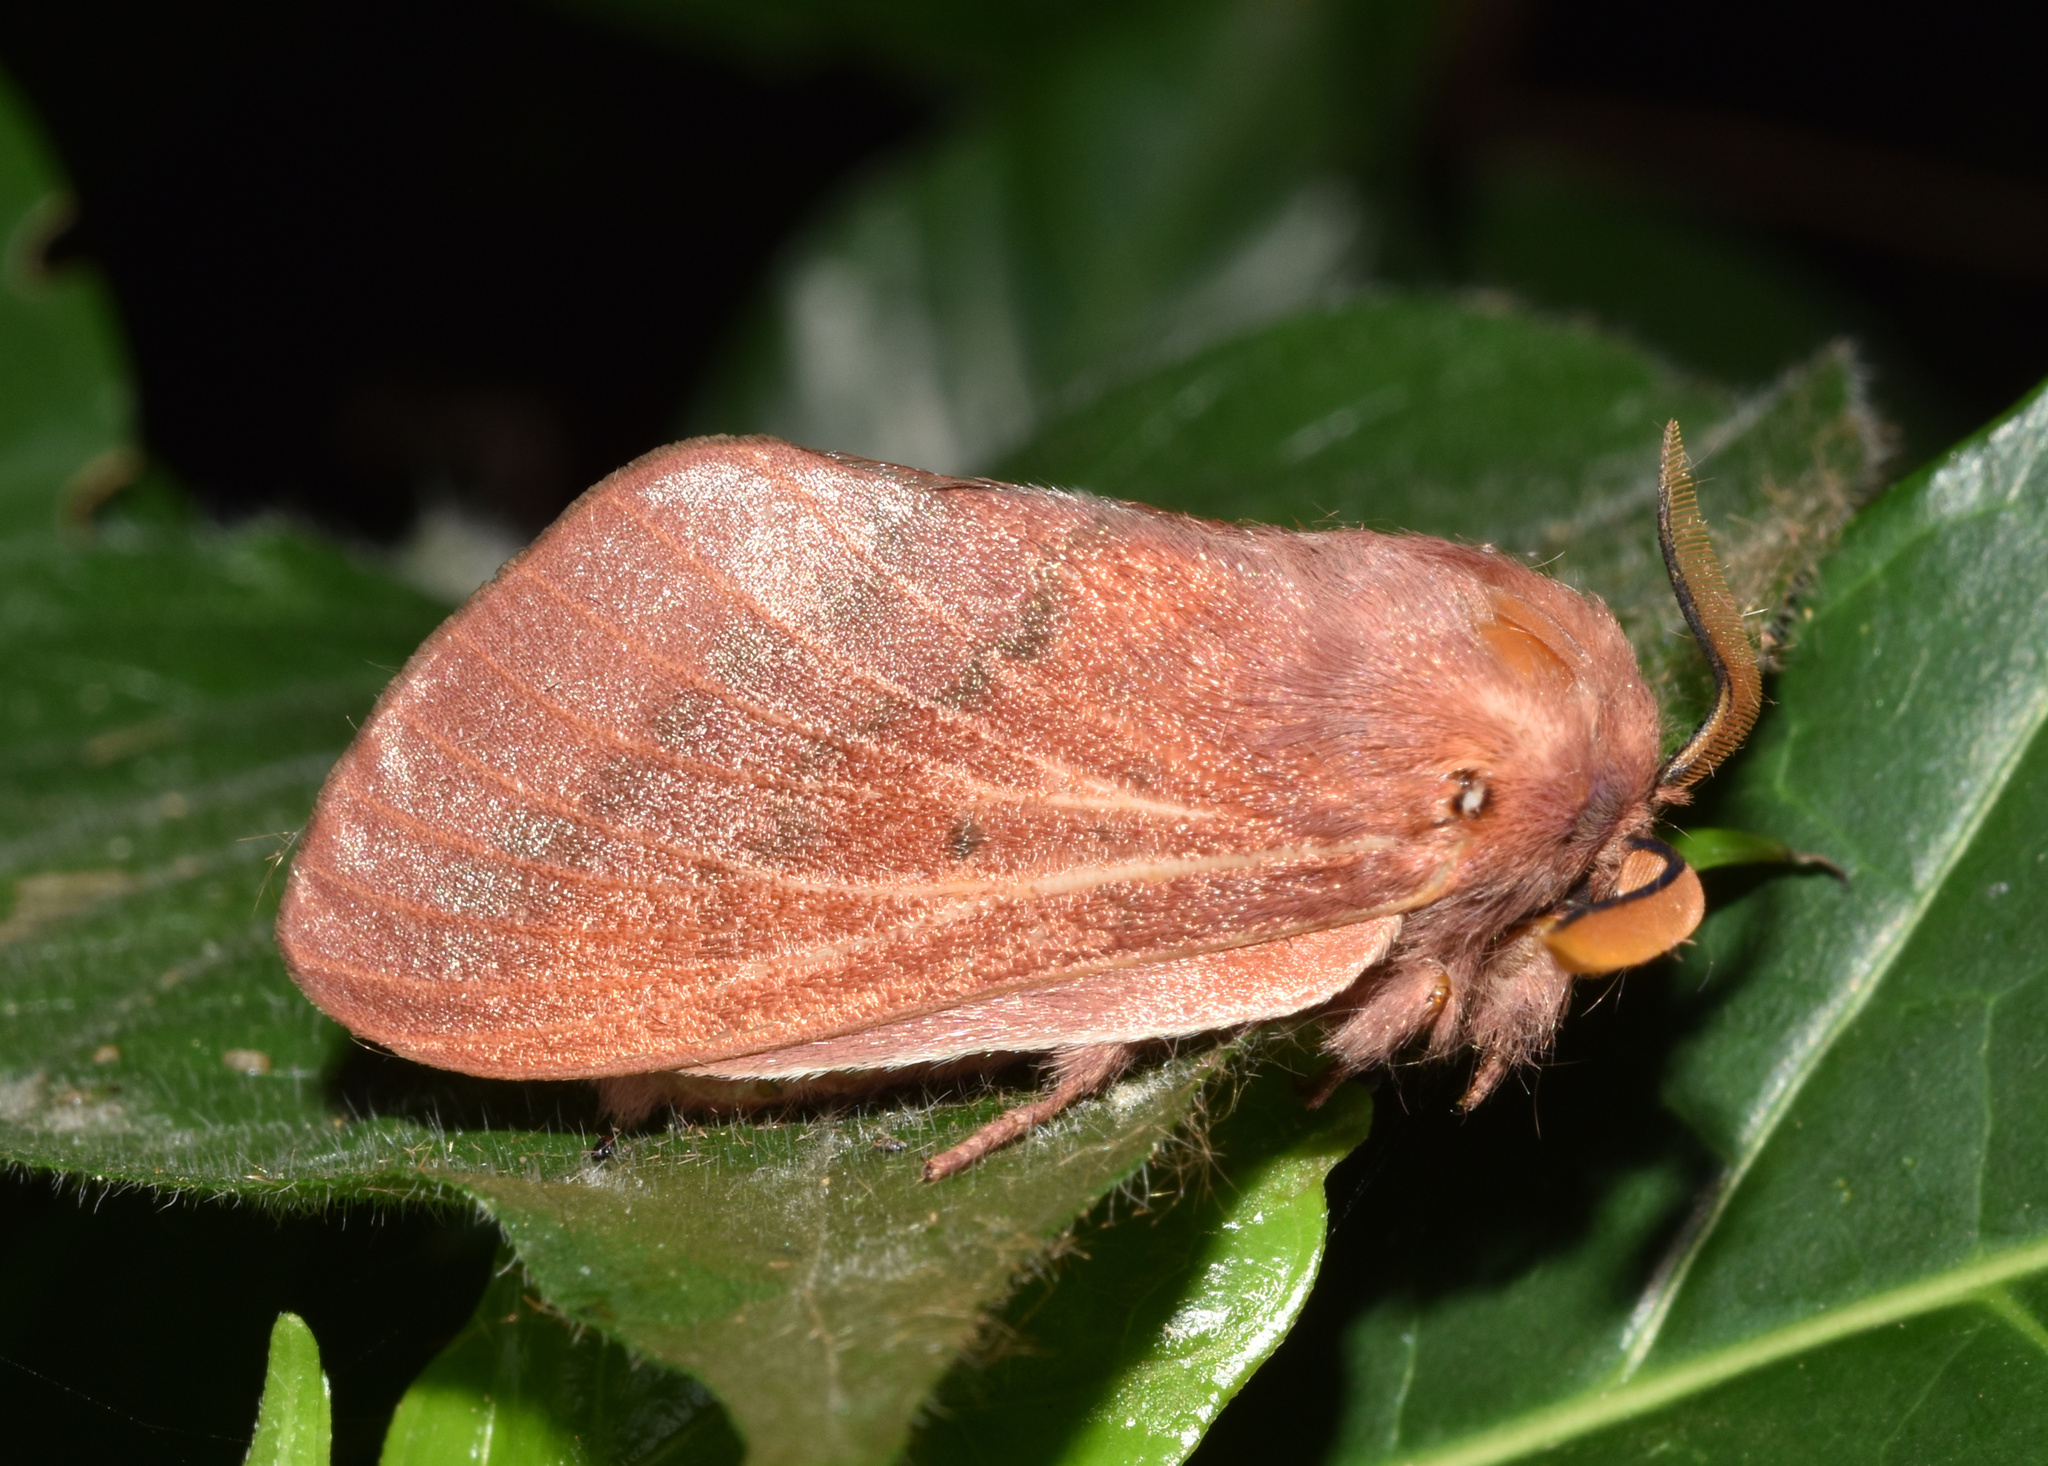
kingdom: Animalia
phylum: Arthropoda
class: Insecta
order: Lepidoptera
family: Lasiocampidae
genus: Henometa
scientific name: Henometa clarki
